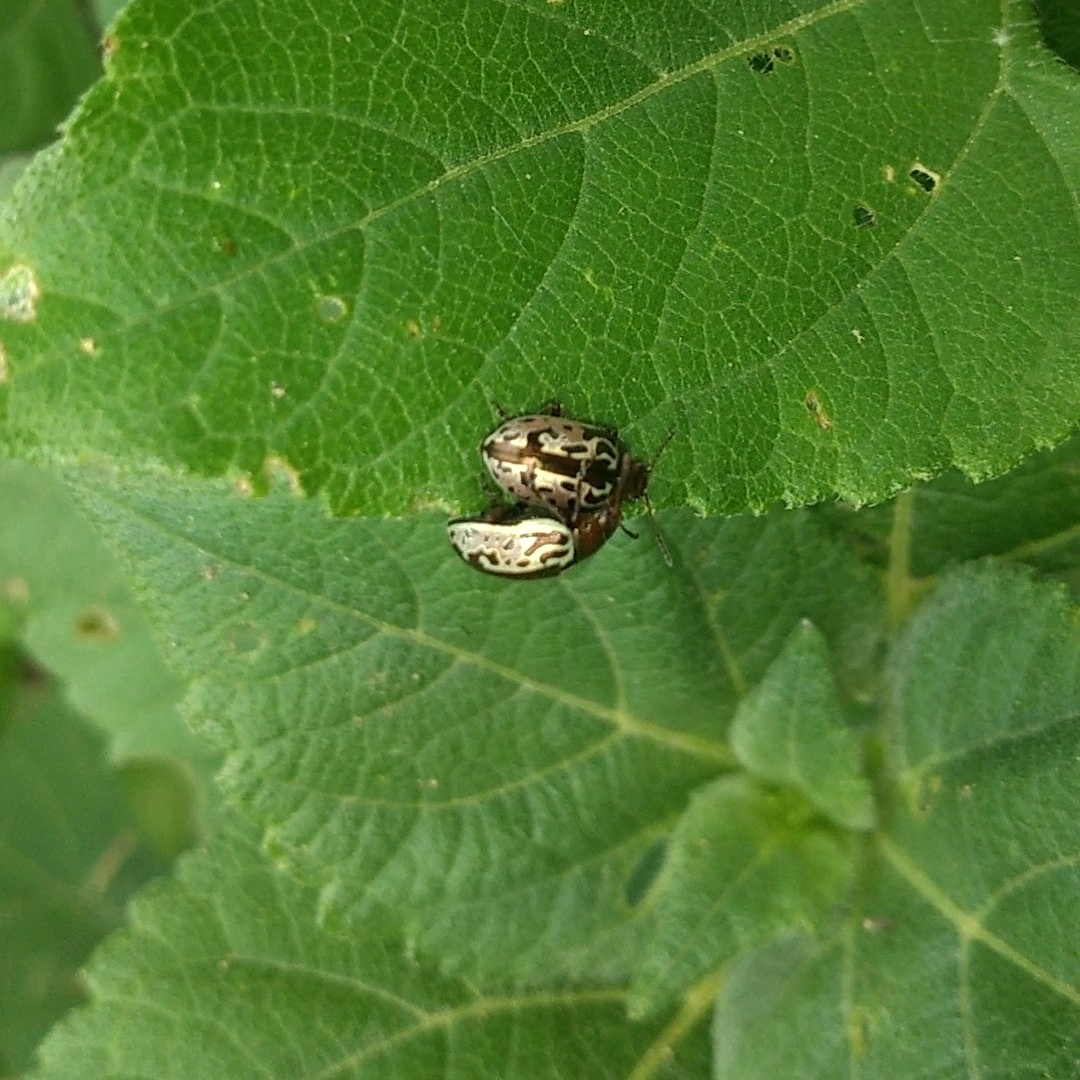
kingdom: Animalia
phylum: Arthropoda
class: Insecta
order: Coleoptera
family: Chrysomelidae
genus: Calligrapha
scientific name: Calligrapha
